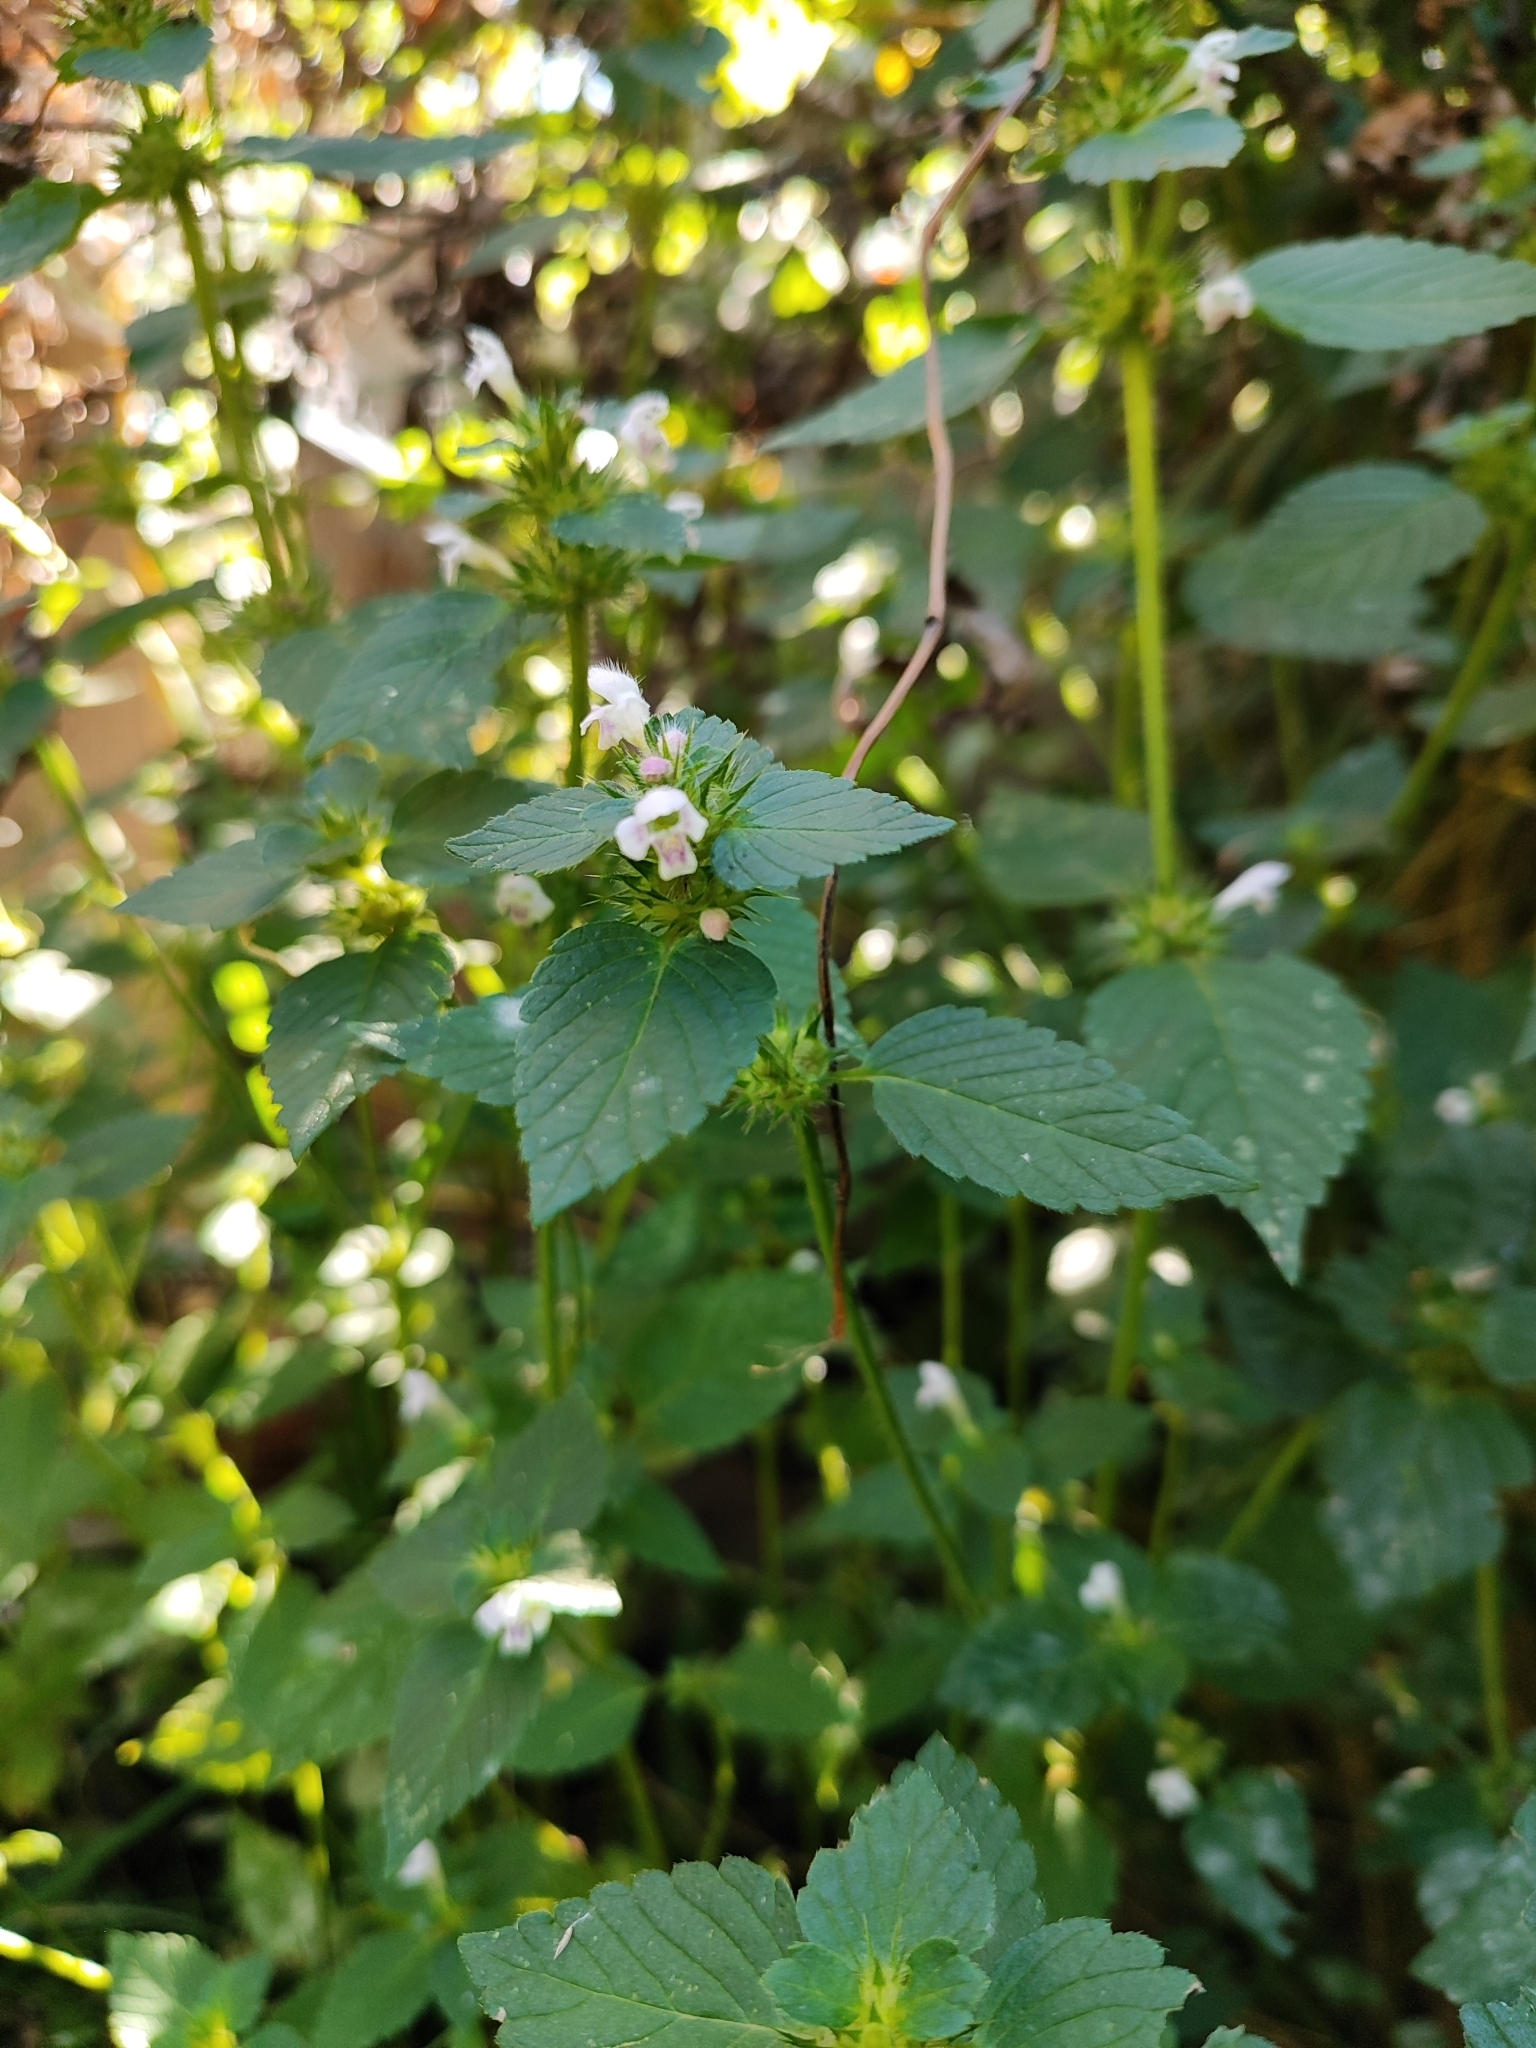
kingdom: Plantae
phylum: Tracheophyta
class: Magnoliopsida
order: Lamiales
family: Lamiaceae
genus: Galeopsis
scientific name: Galeopsis bifida
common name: Bifid hemp-nettle
